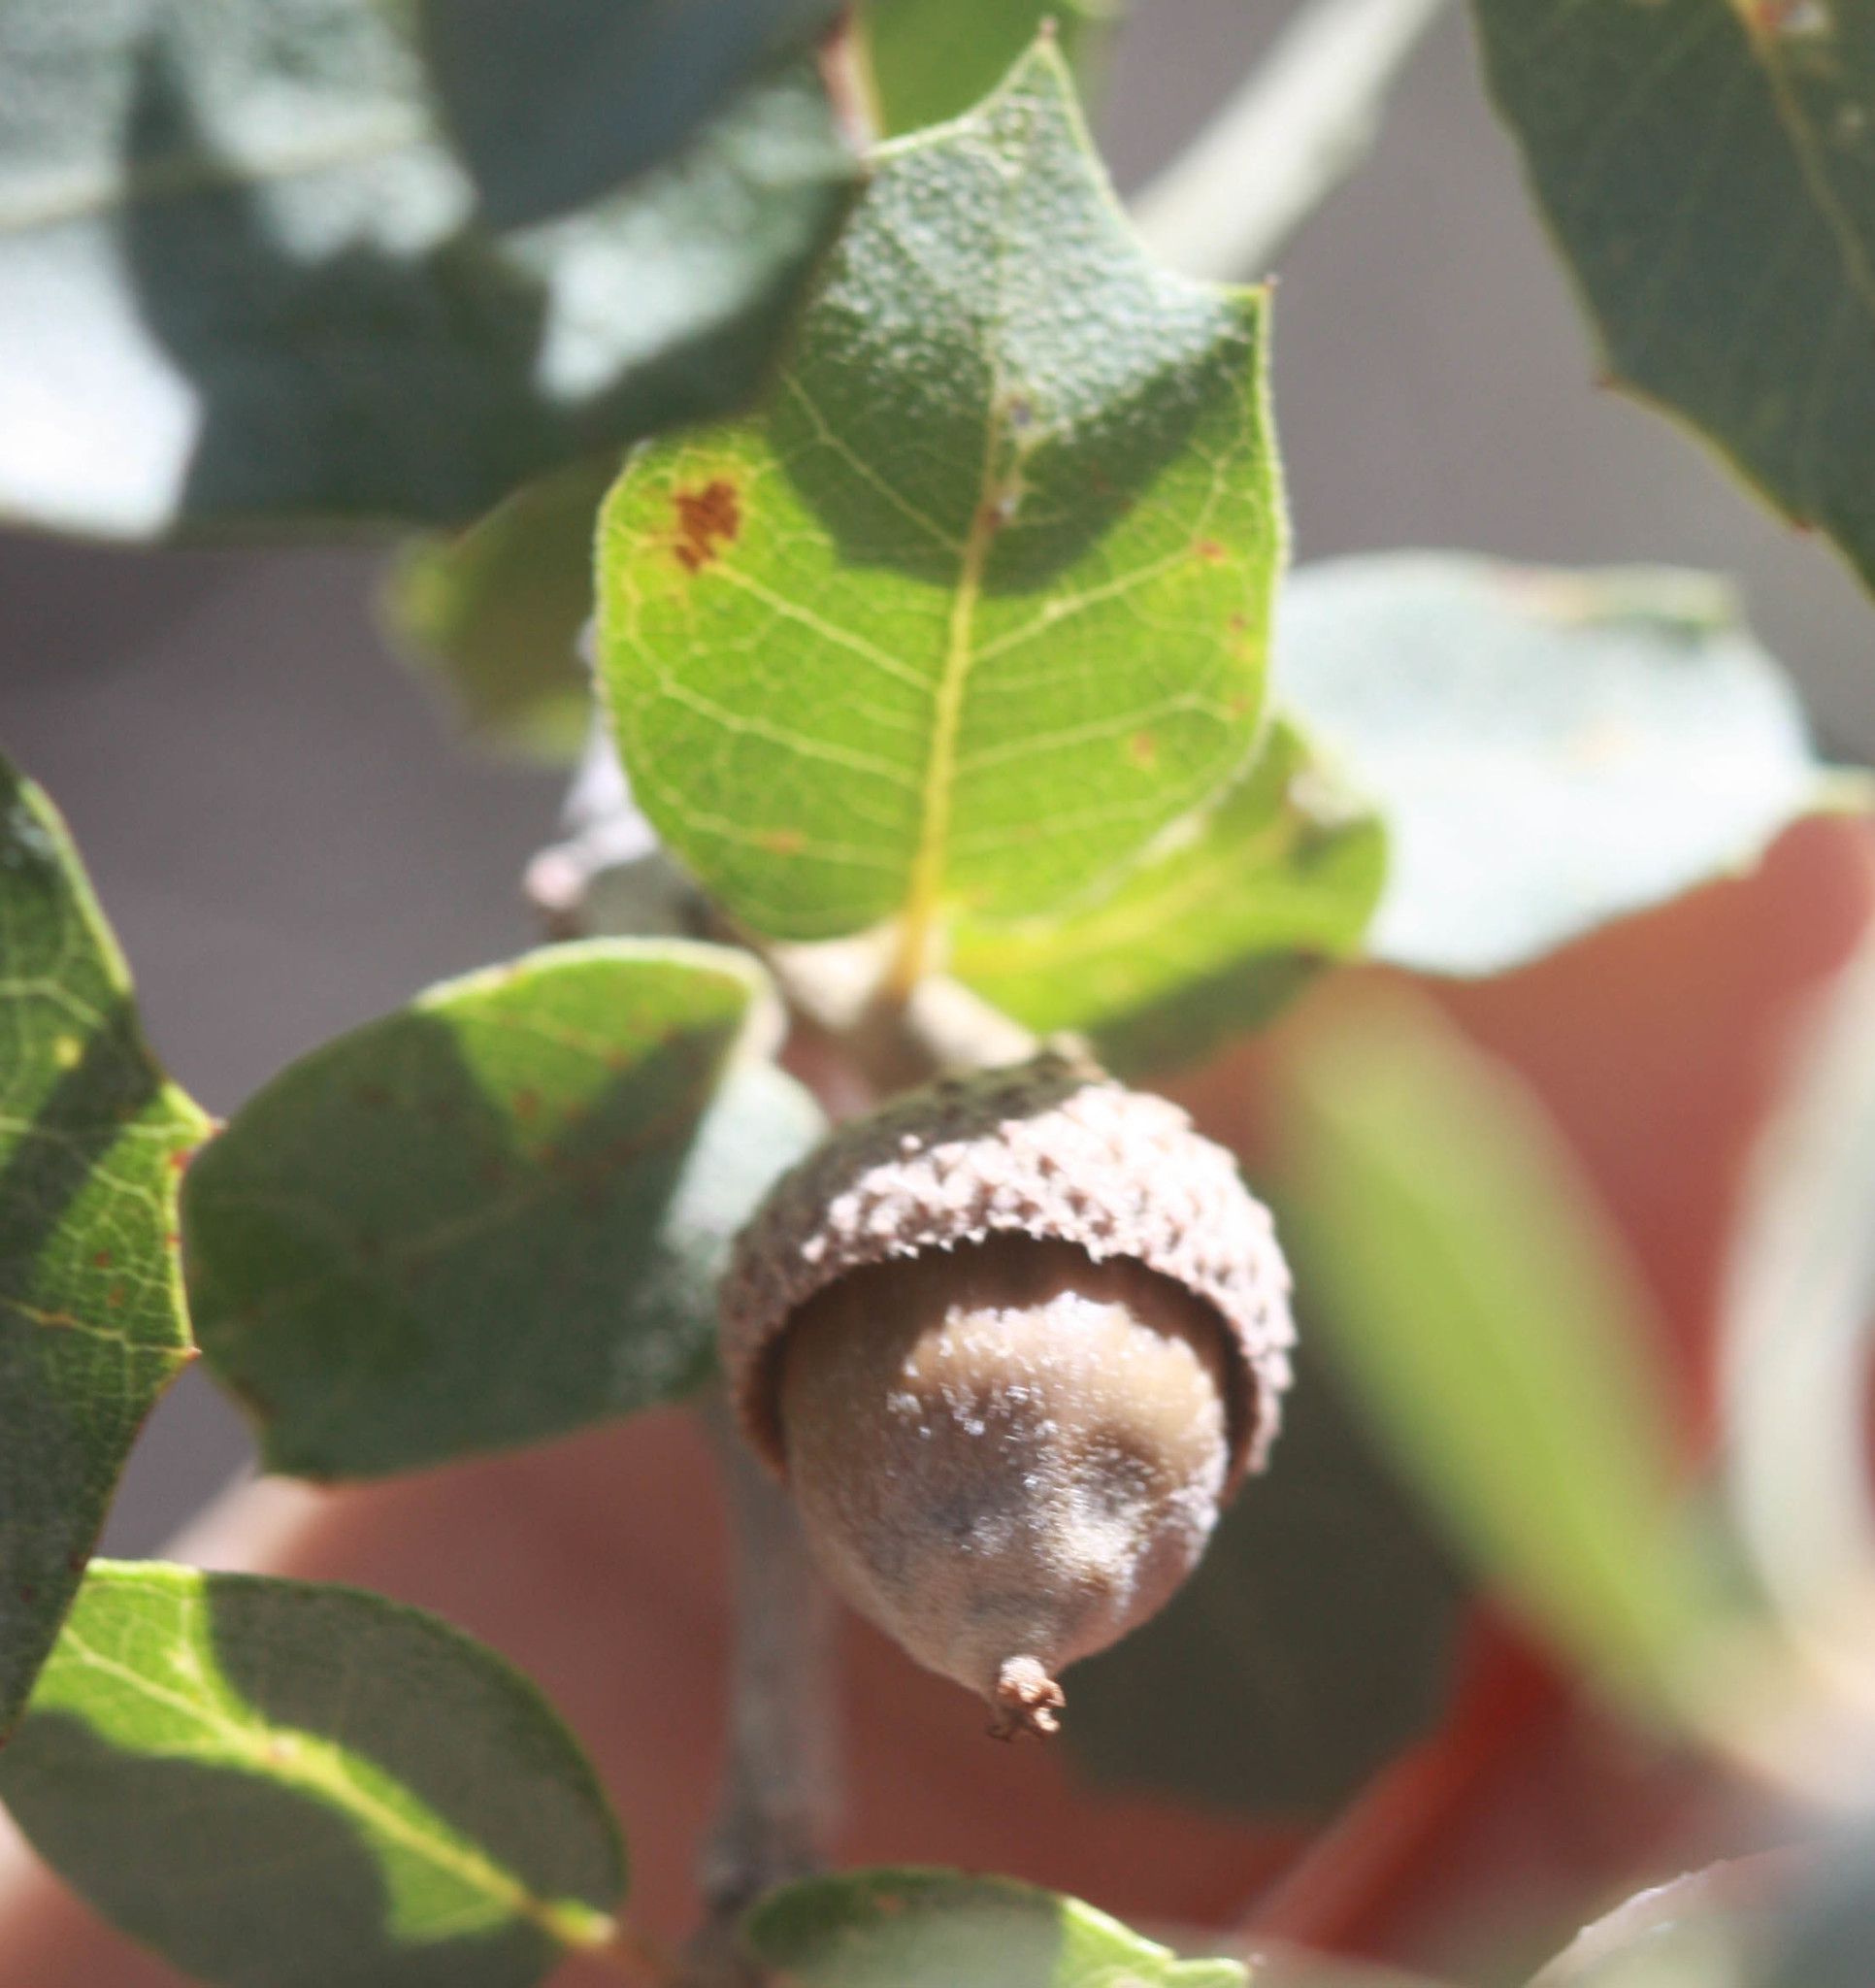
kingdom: Plantae
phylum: Tracheophyta
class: Magnoliopsida
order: Fagales
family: Fagaceae
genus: Quercus
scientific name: Quercus turbinella
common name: Sonoran scrub oak
